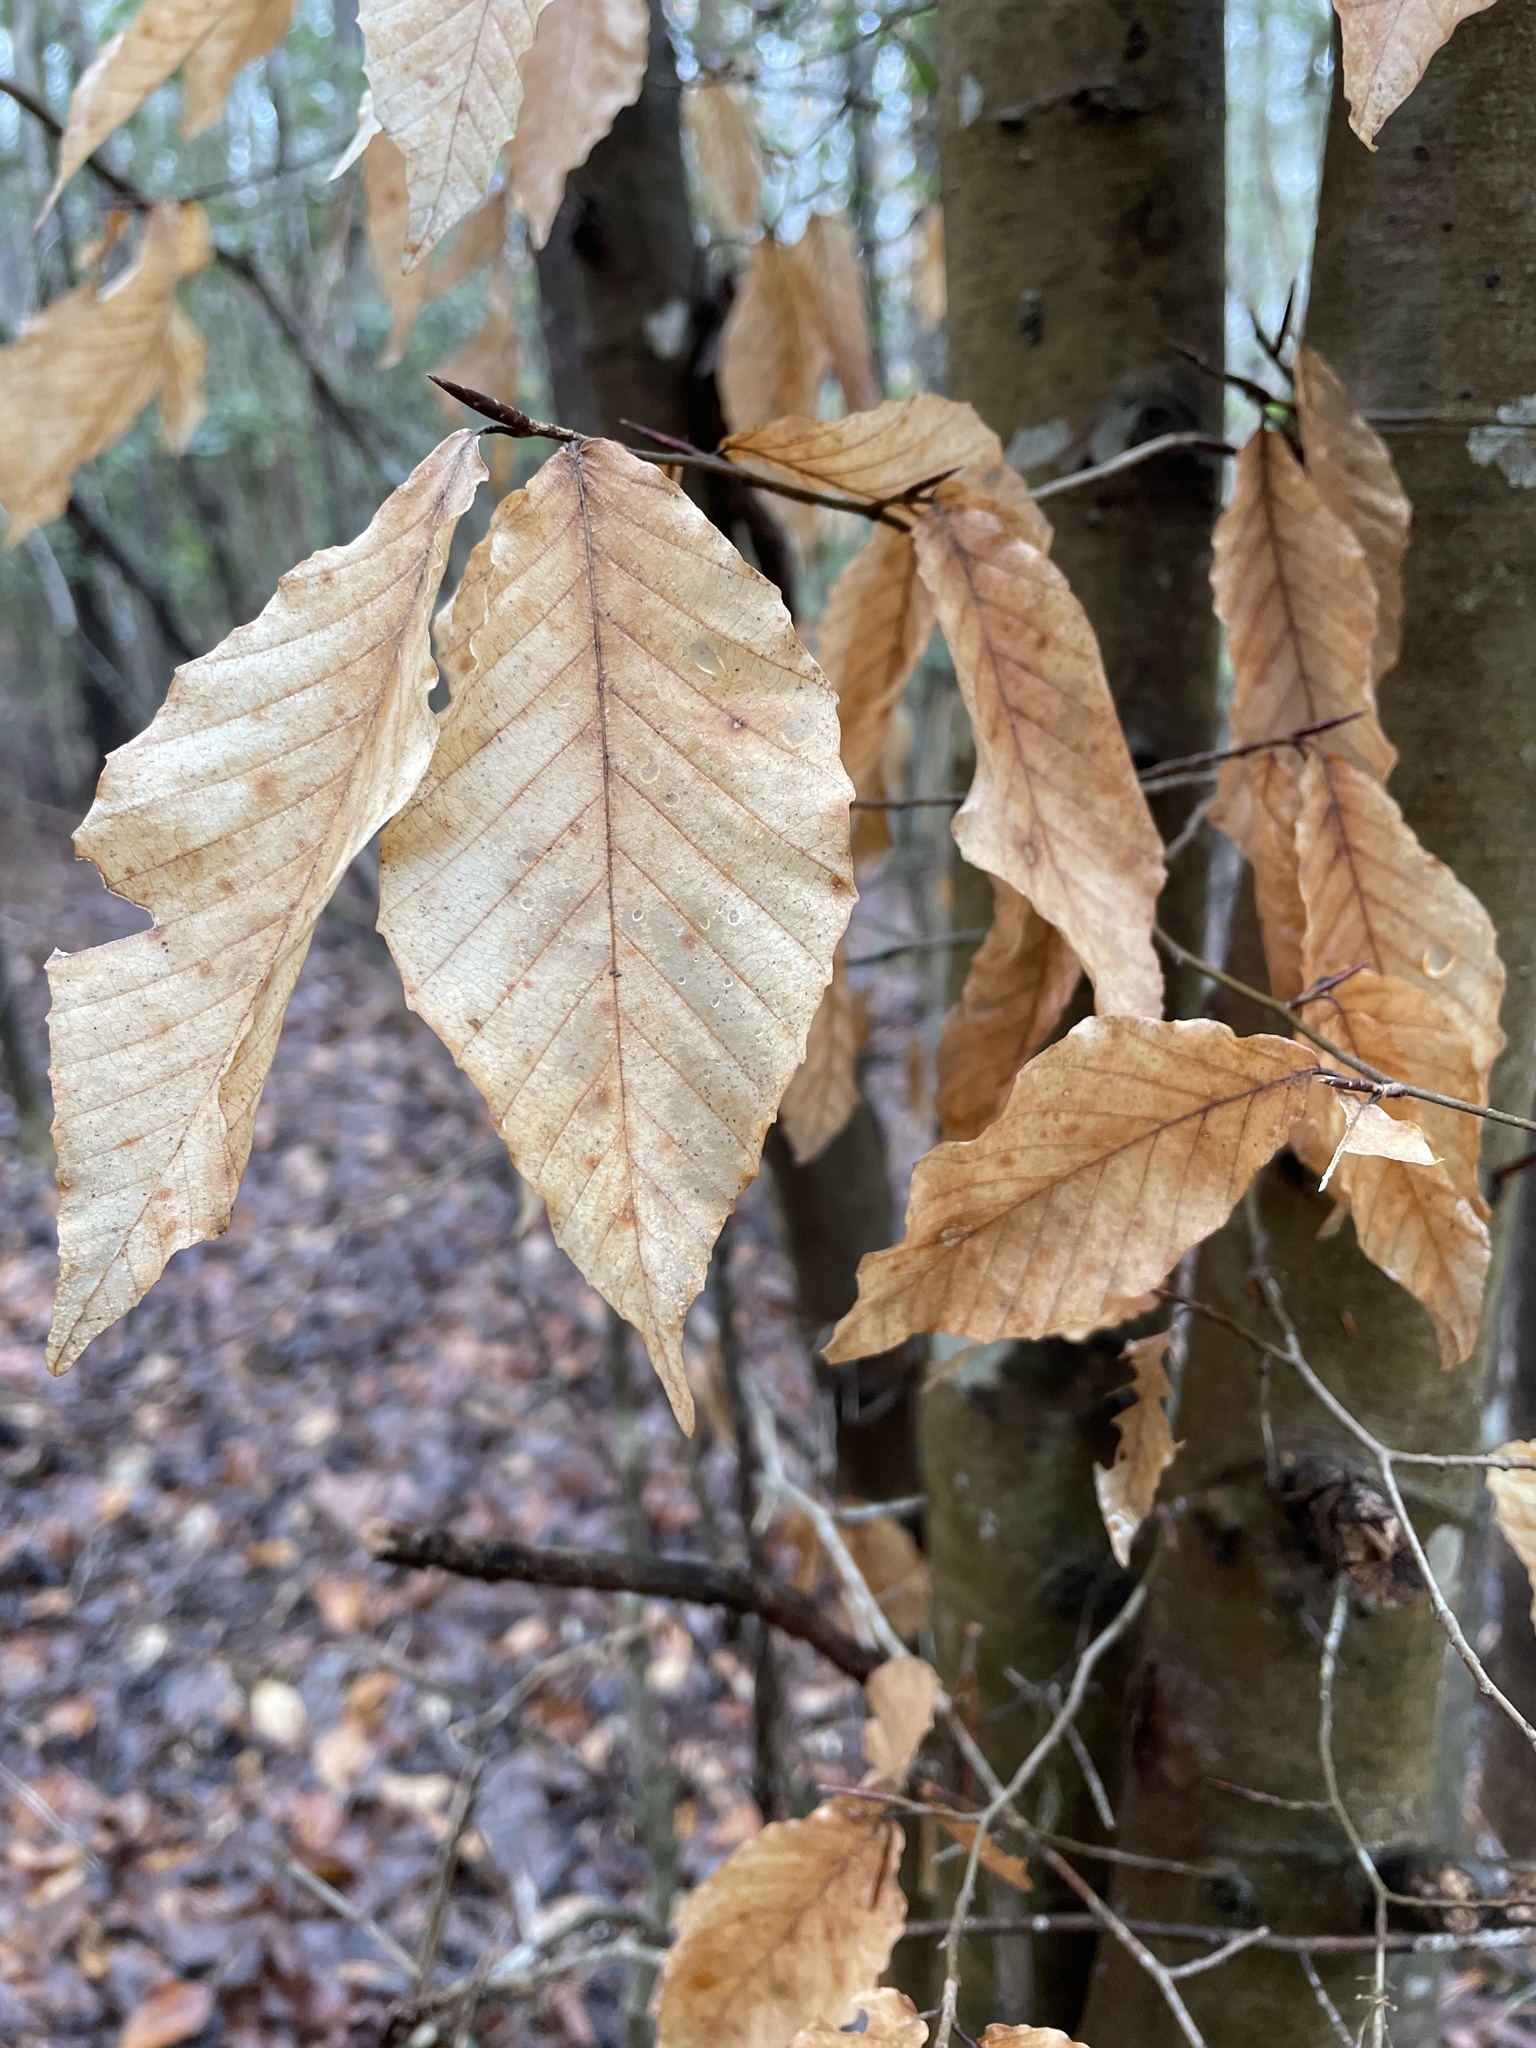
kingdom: Plantae
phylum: Tracheophyta
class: Magnoliopsida
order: Fagales
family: Fagaceae
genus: Fagus
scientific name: Fagus grandifolia
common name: American beech
